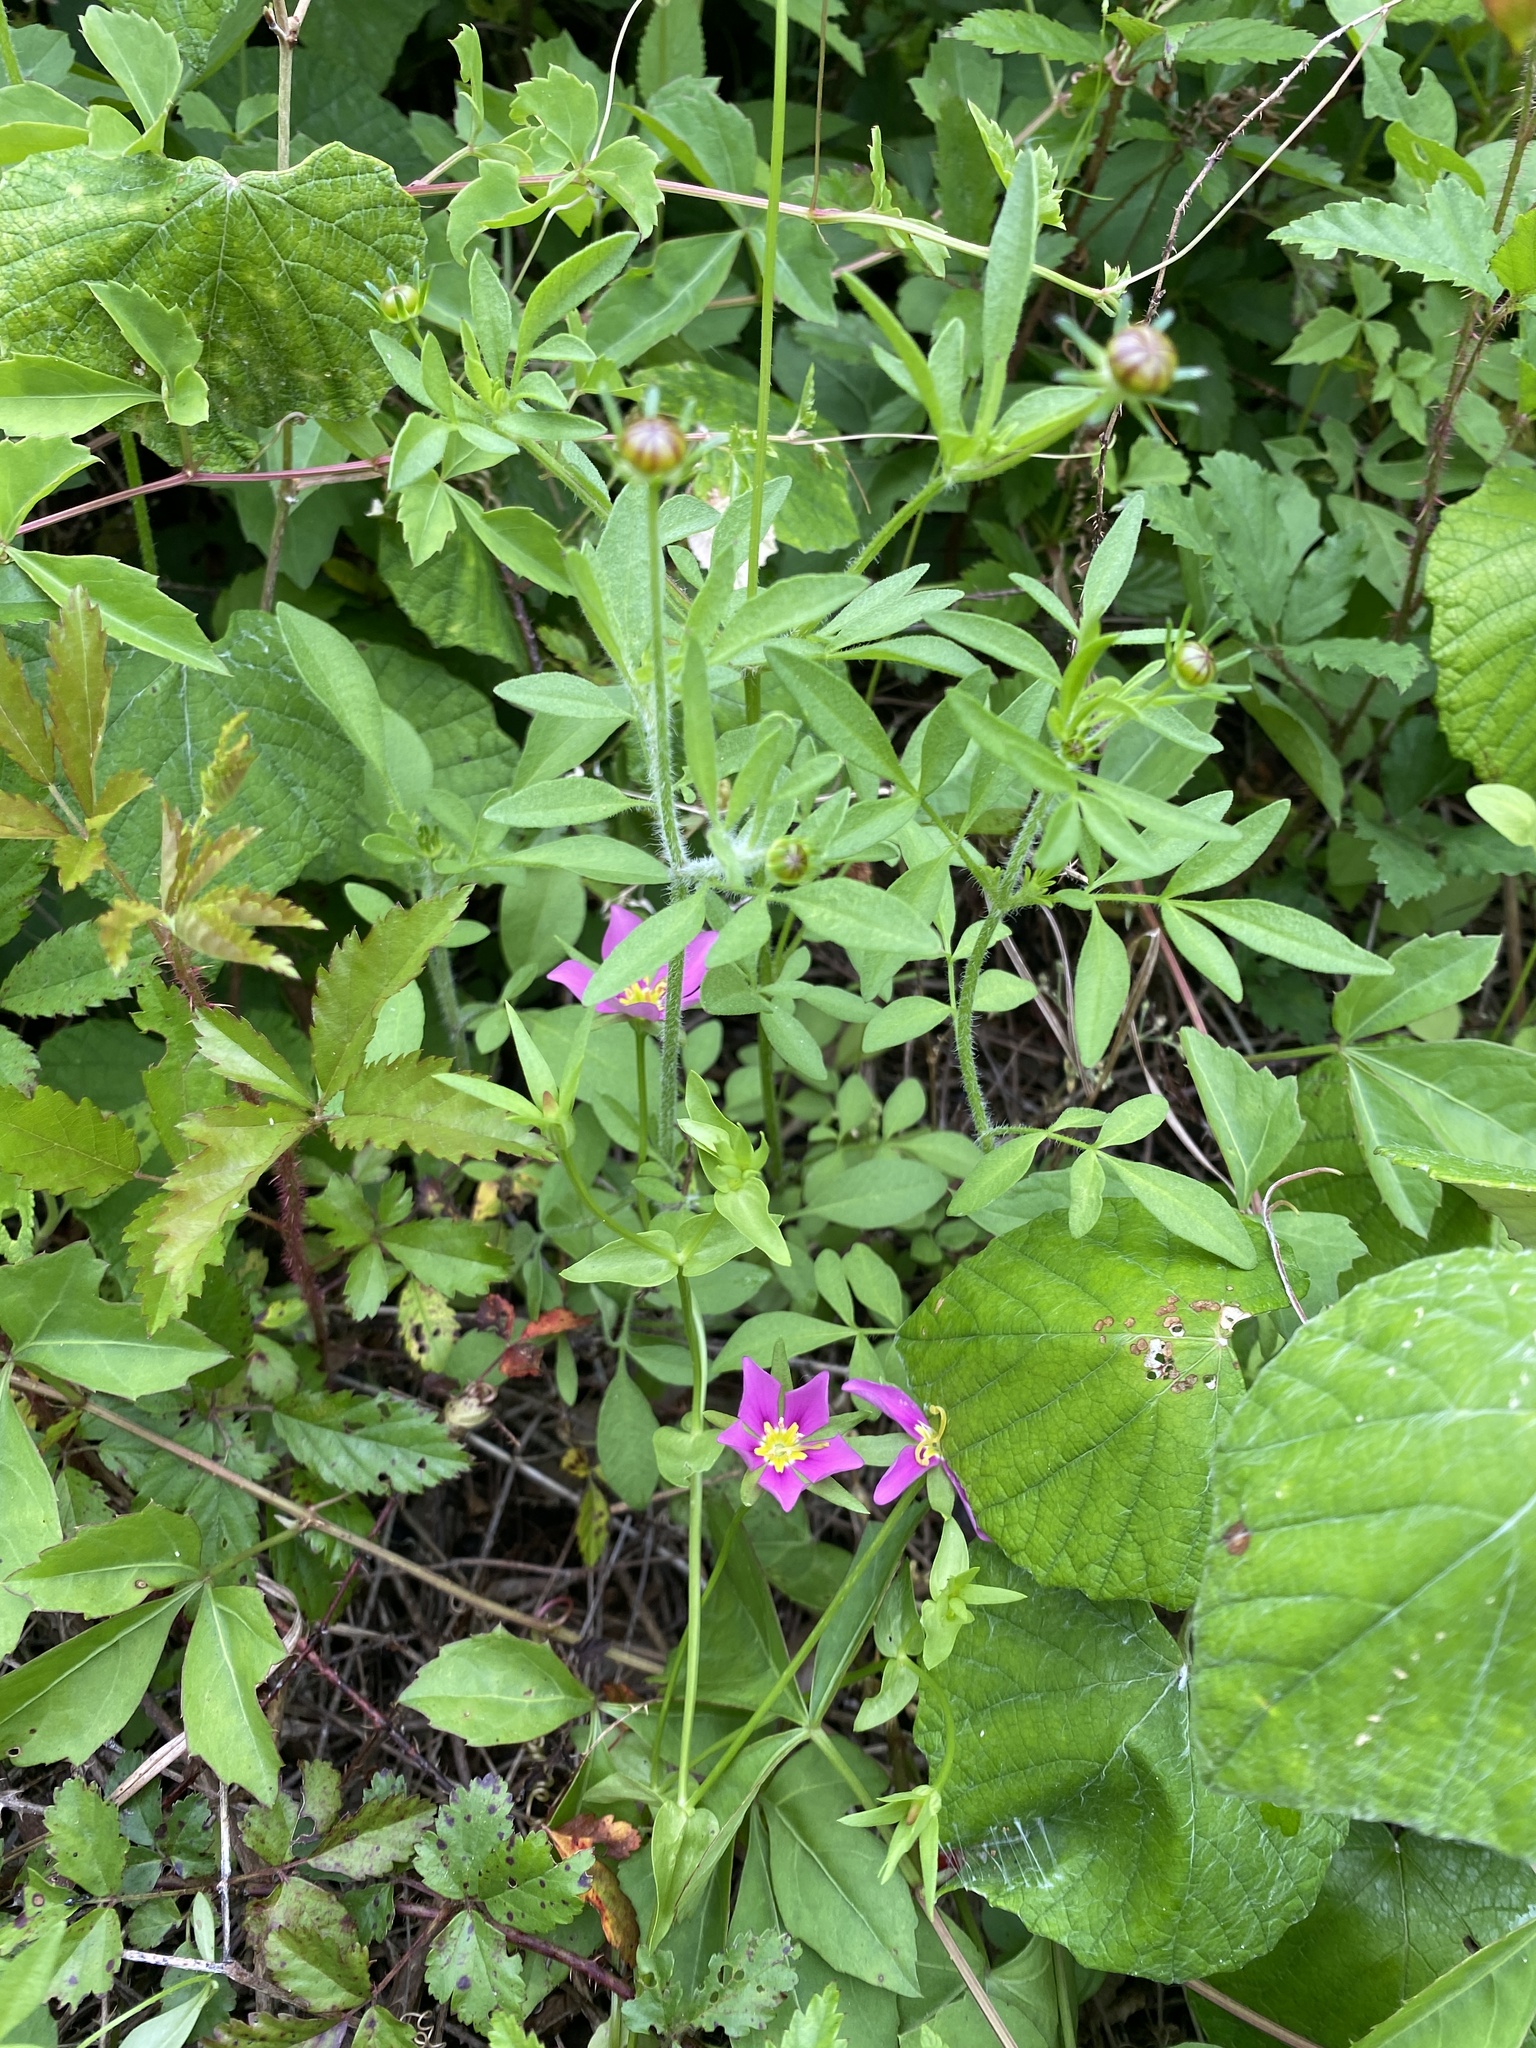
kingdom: Plantae
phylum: Tracheophyta
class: Magnoliopsida
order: Gentianales
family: Gentianaceae
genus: Sabatia
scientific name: Sabatia campestris
